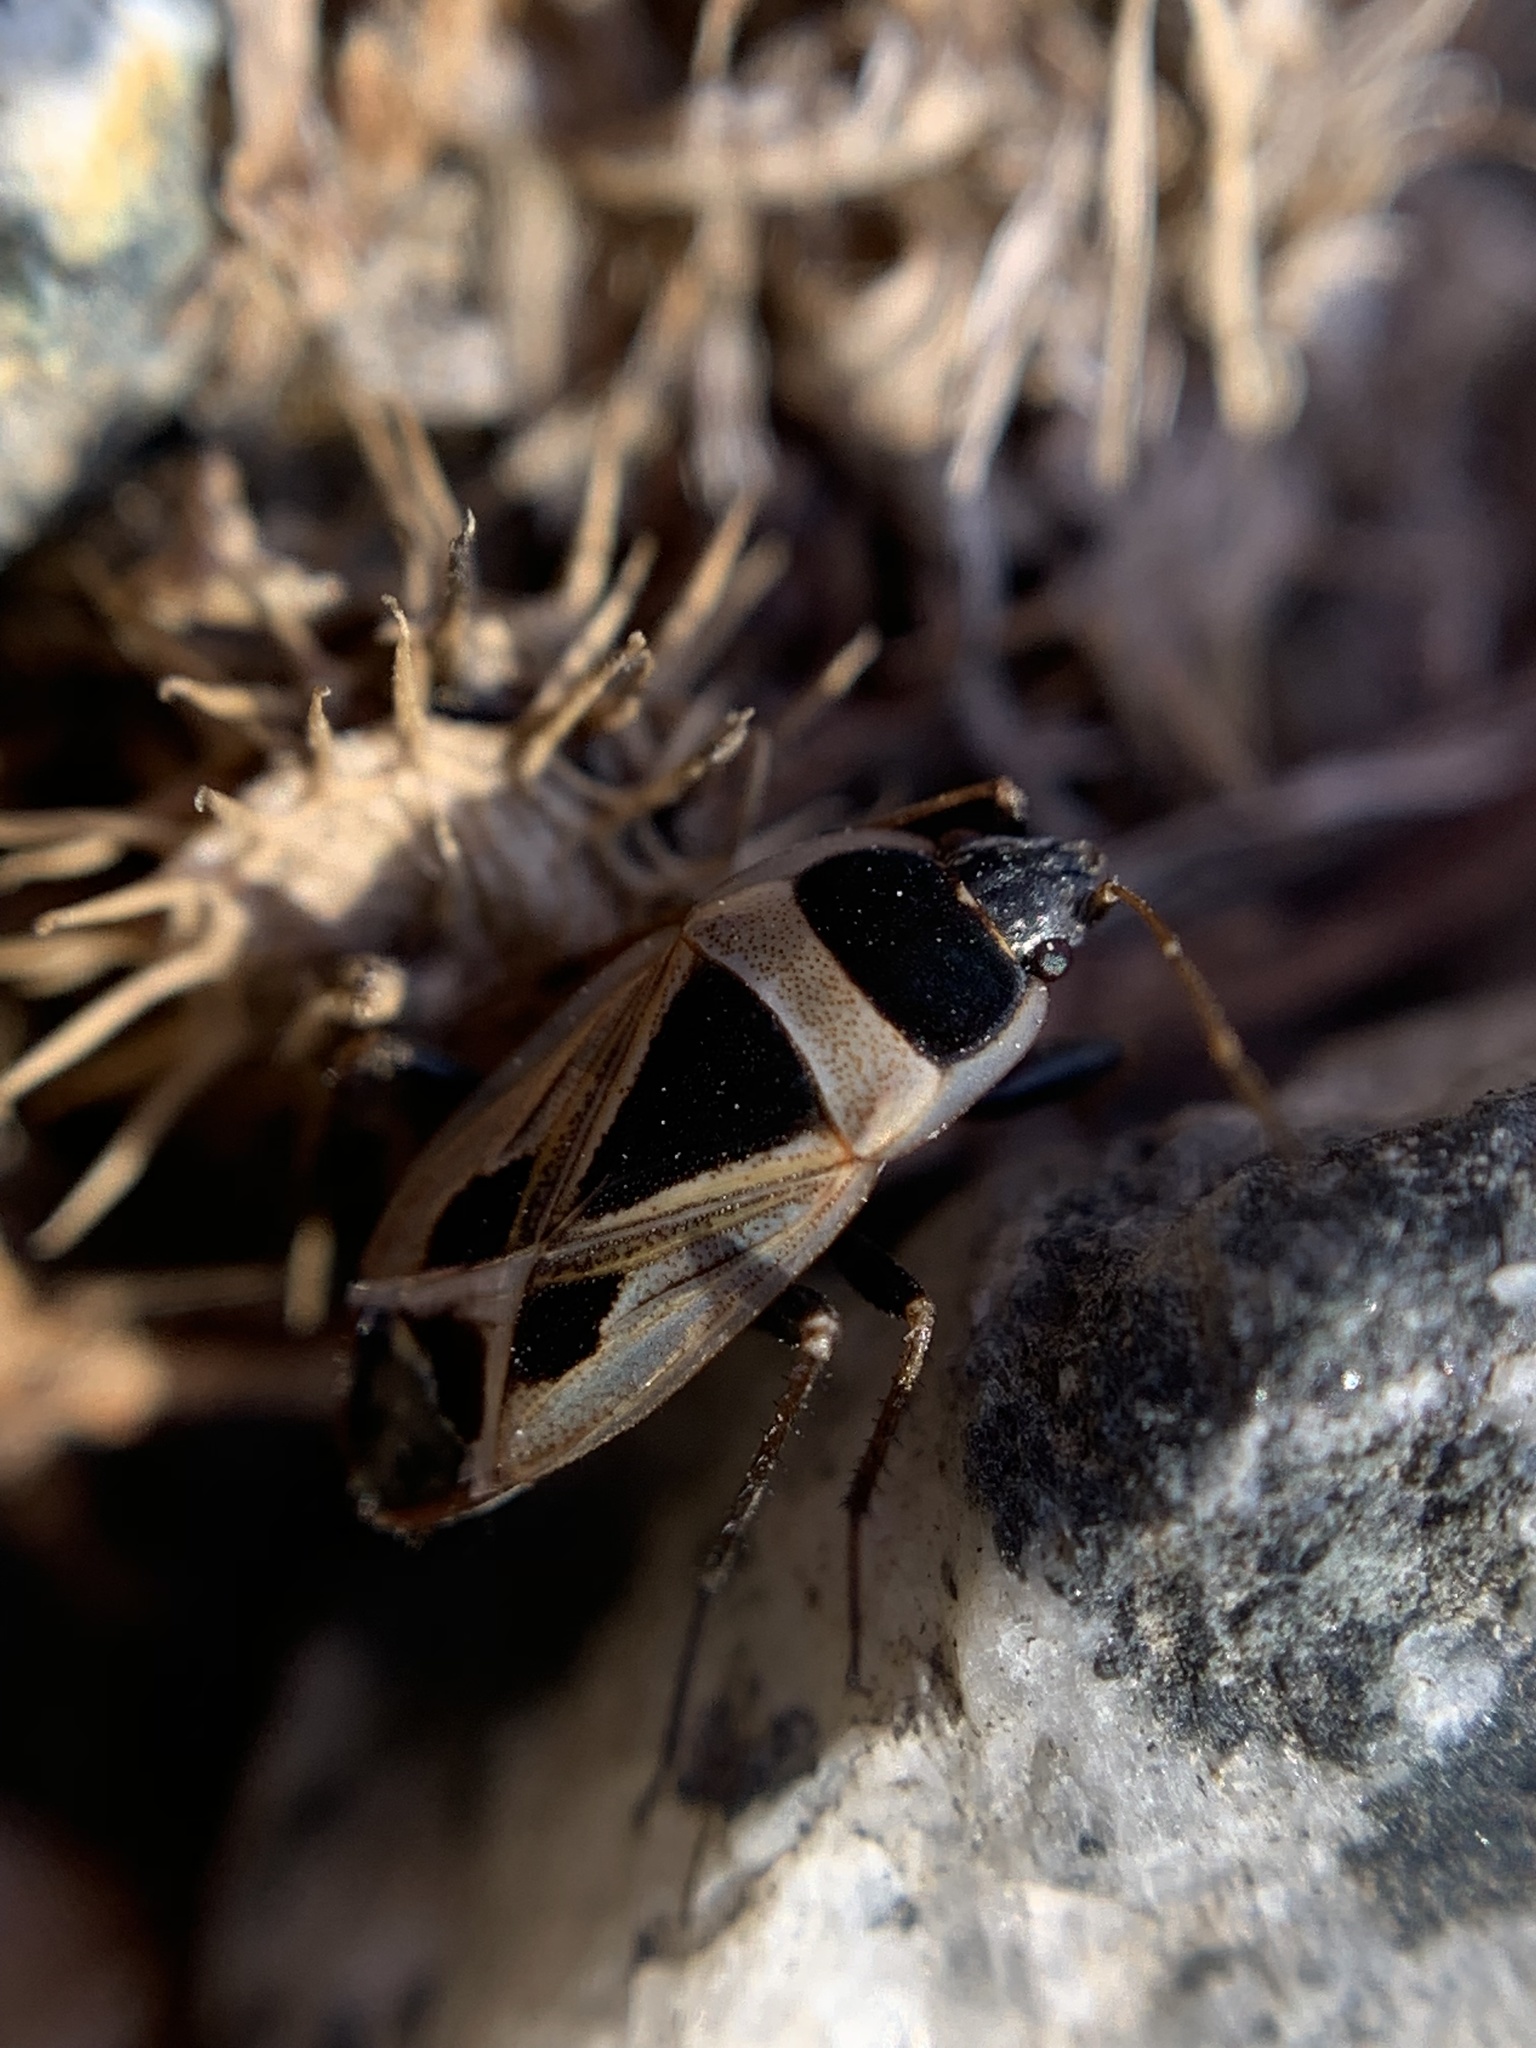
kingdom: Animalia
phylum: Arthropoda
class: Insecta
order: Hemiptera
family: Rhyparochromidae
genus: Xanthochilus
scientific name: Xanthochilus saturnius
